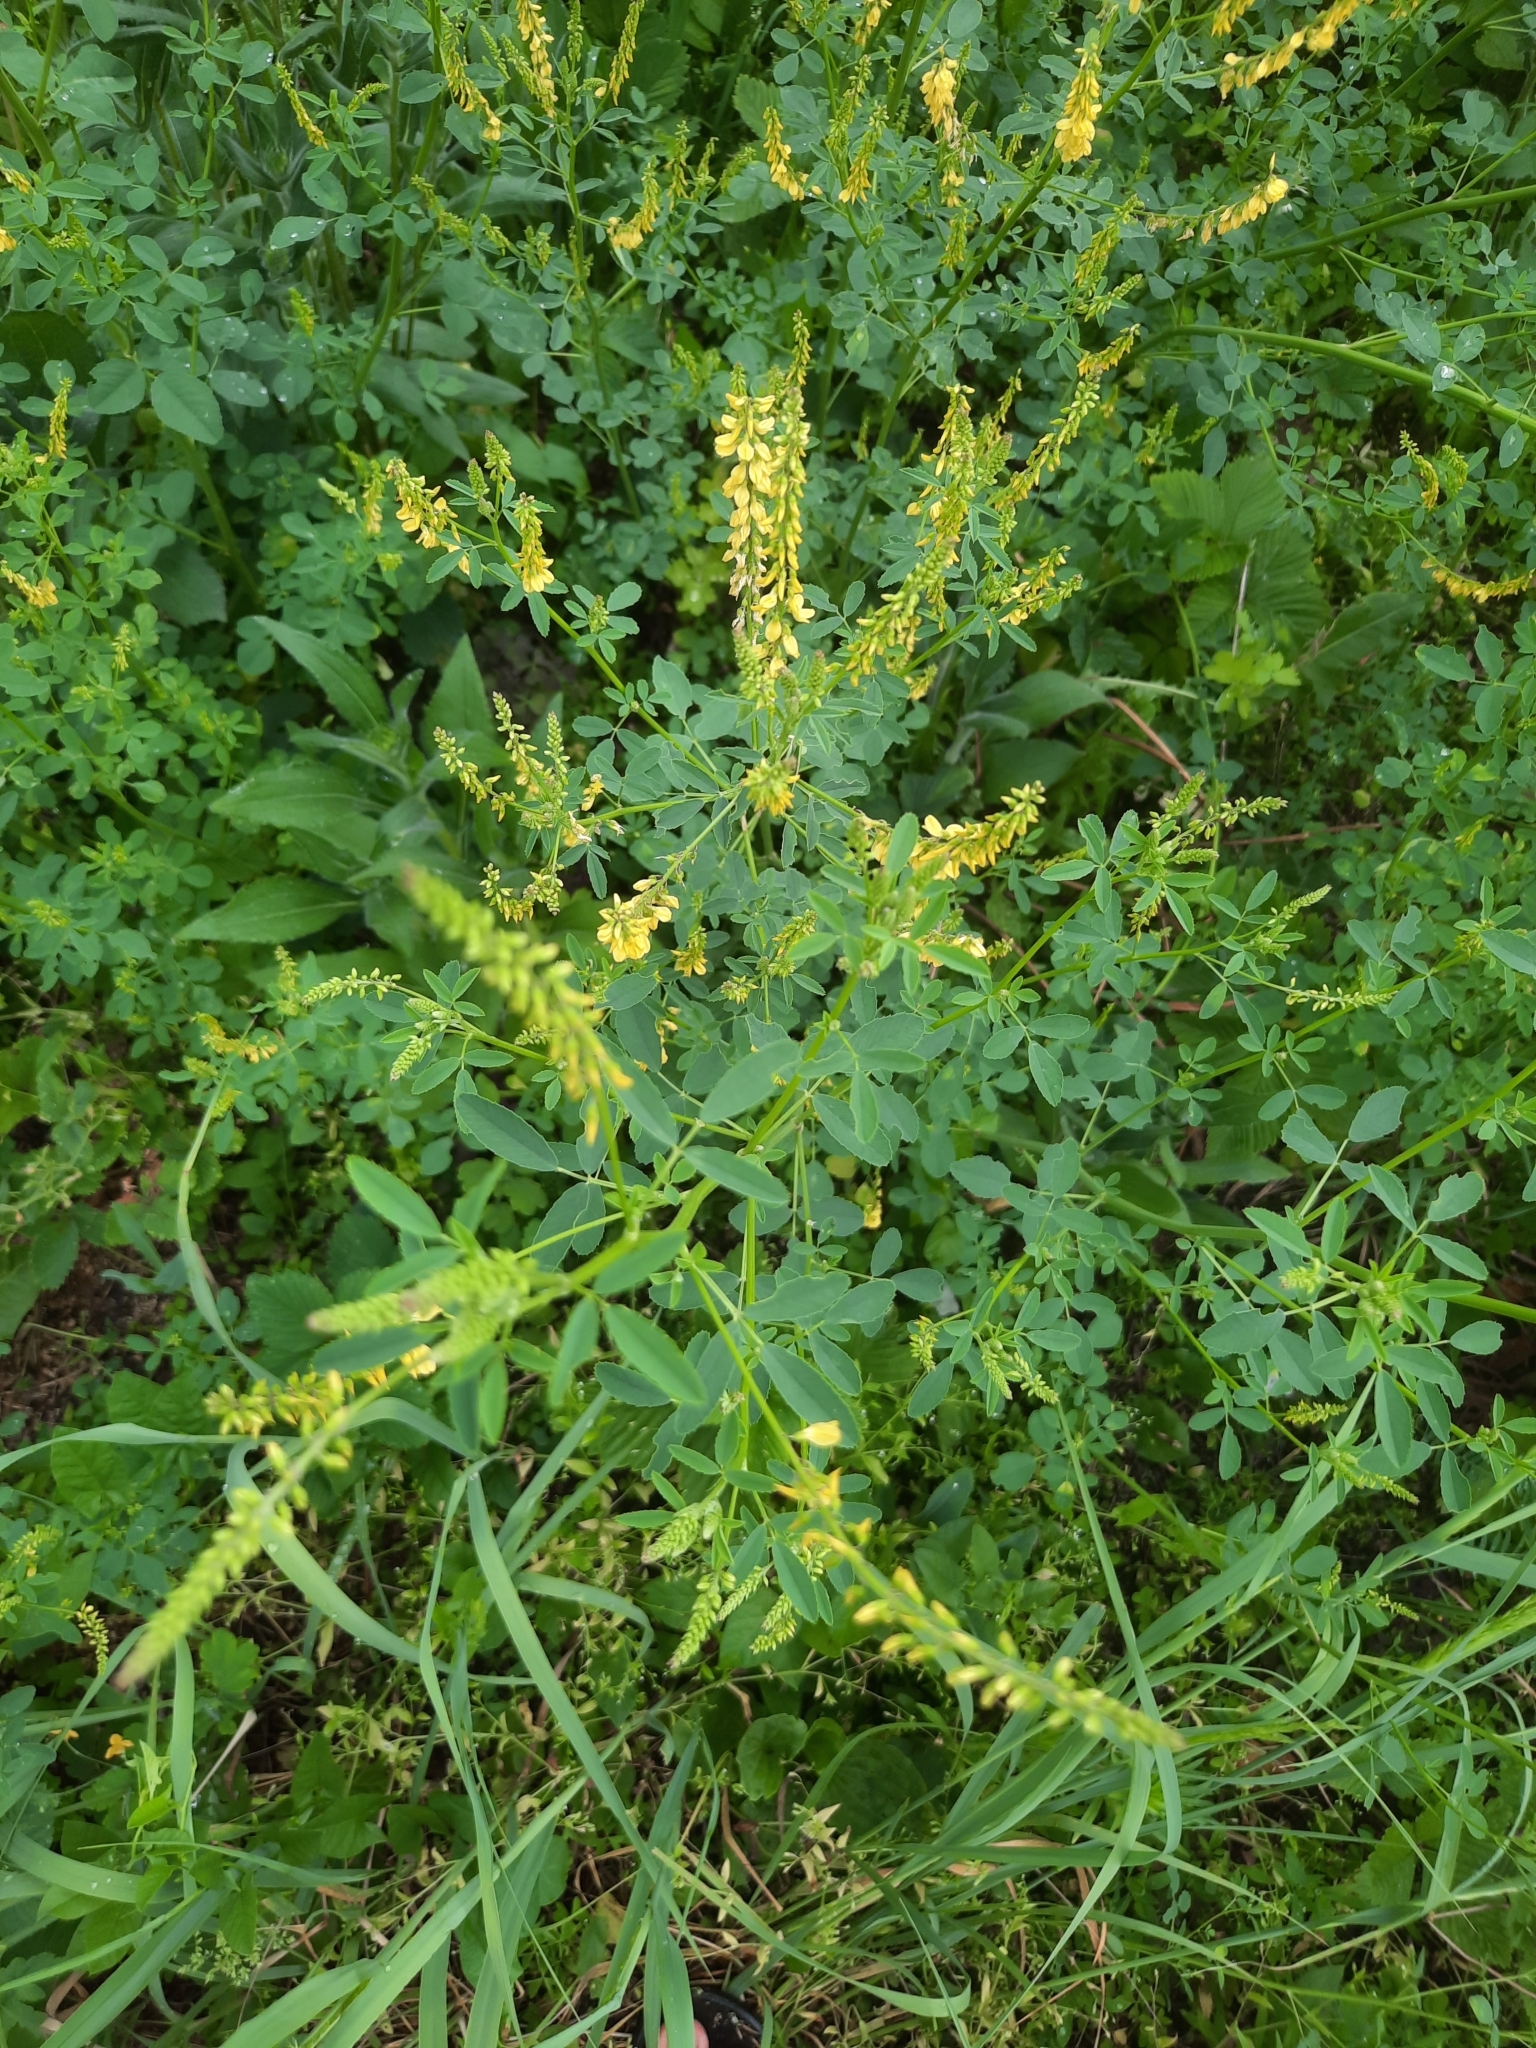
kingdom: Plantae
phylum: Tracheophyta
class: Magnoliopsida
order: Fabales
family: Fabaceae
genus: Melilotus
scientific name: Melilotus officinalis
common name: Sweetclover
